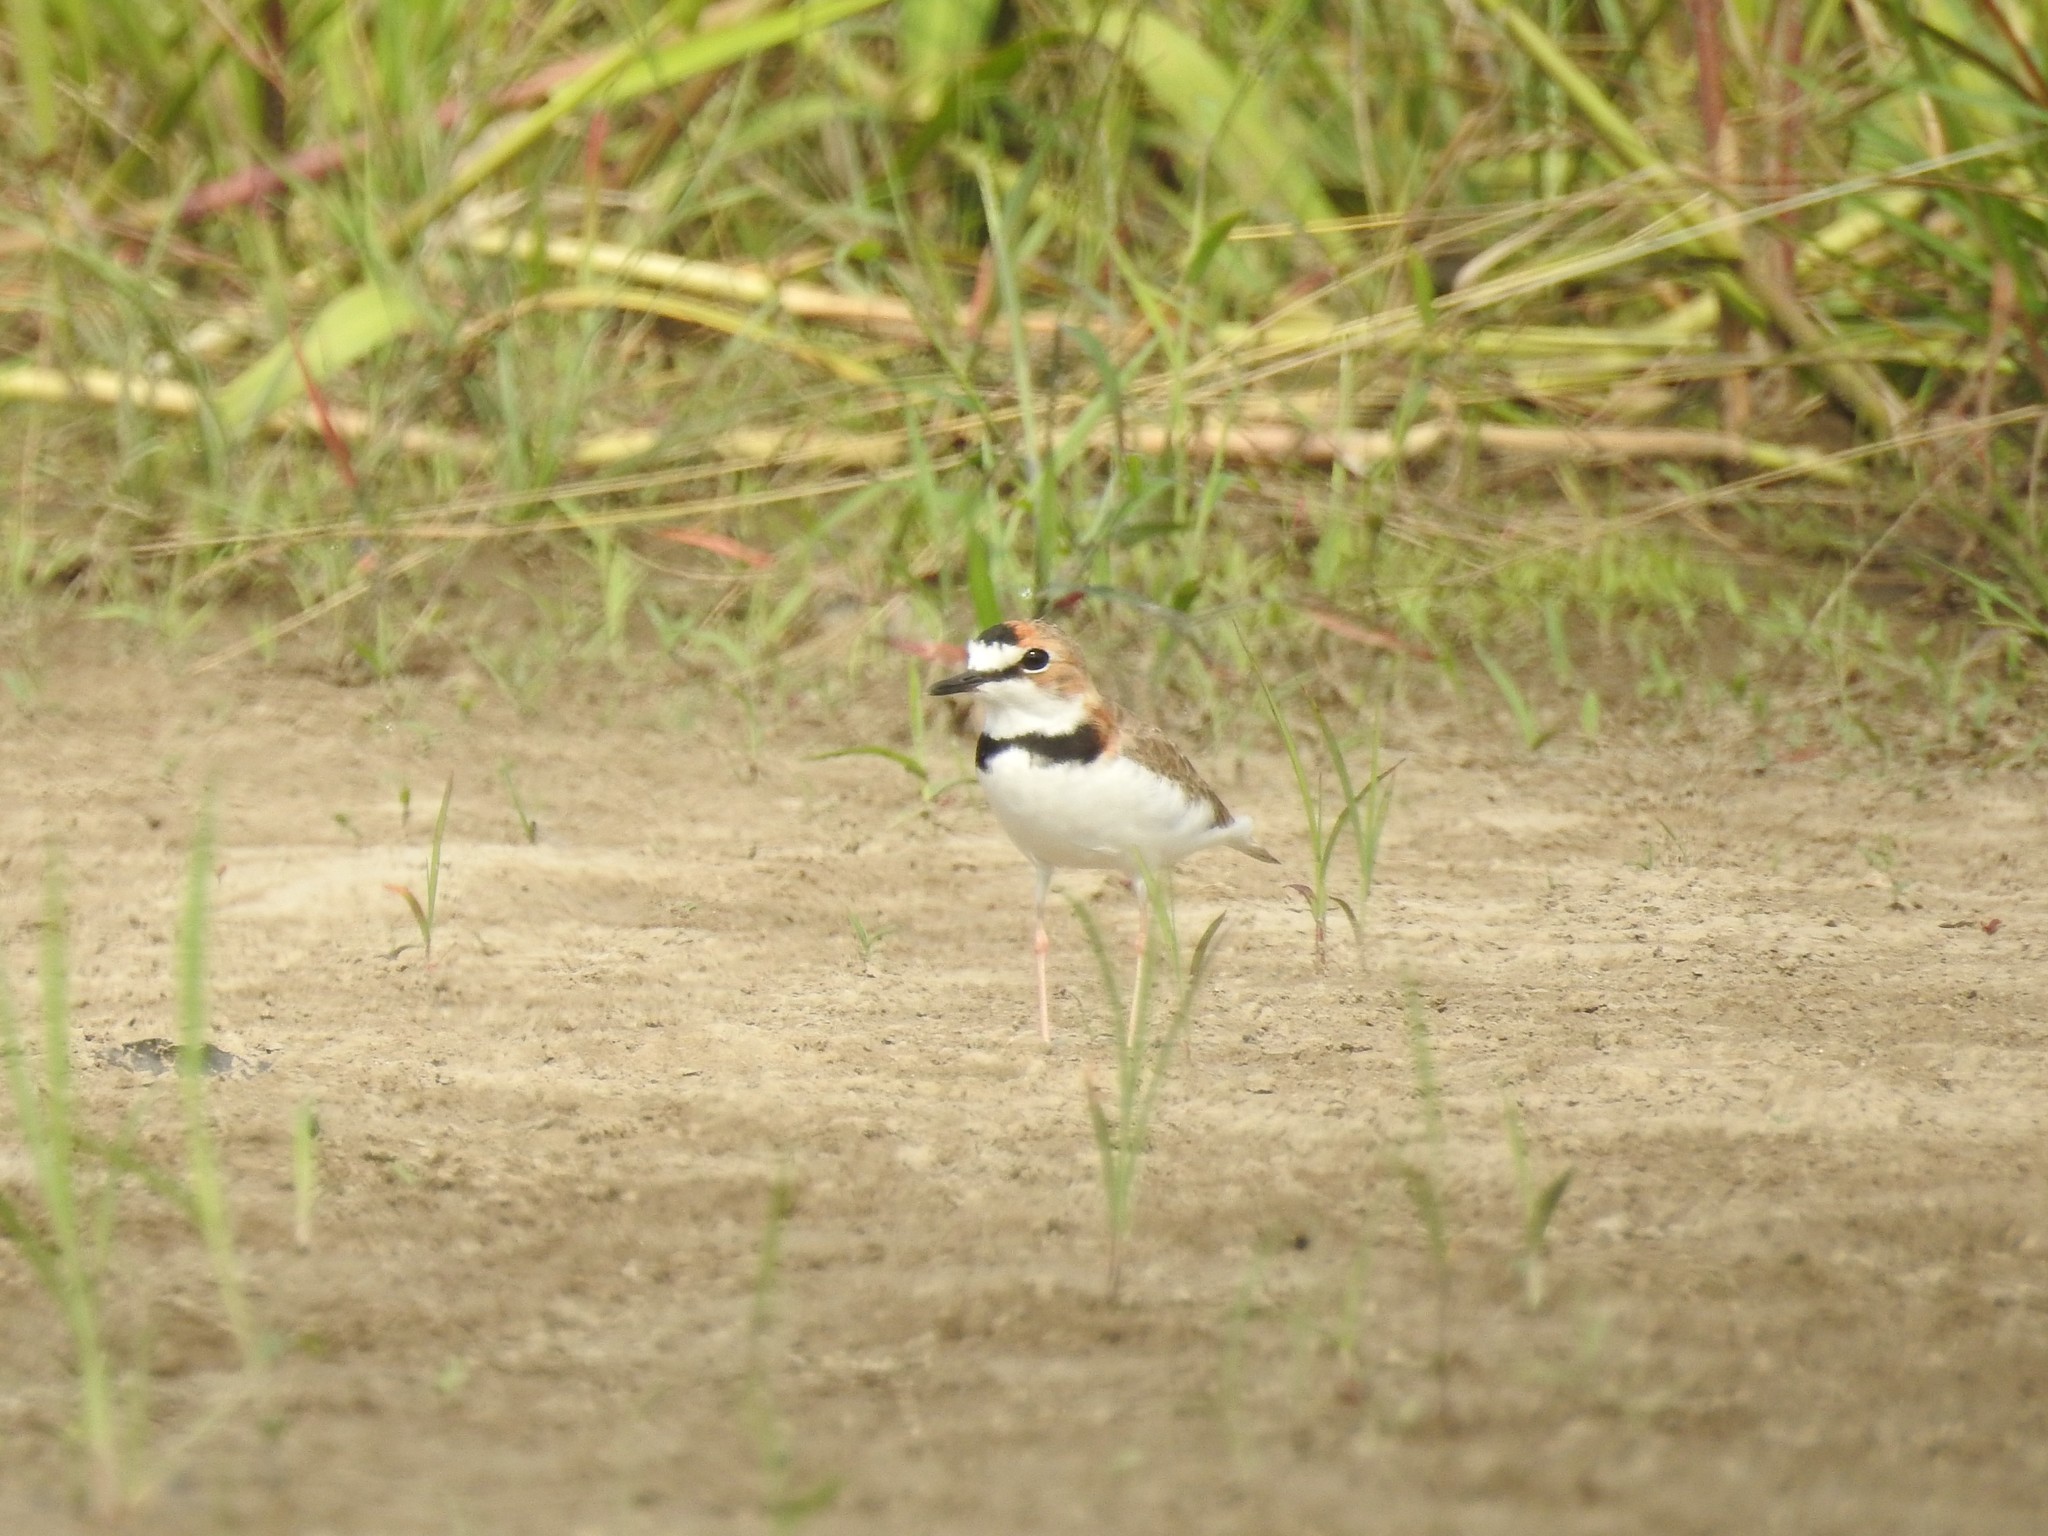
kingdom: Animalia
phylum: Chordata
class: Aves
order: Charadriiformes
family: Charadriidae
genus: Anarhynchus
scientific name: Anarhynchus
